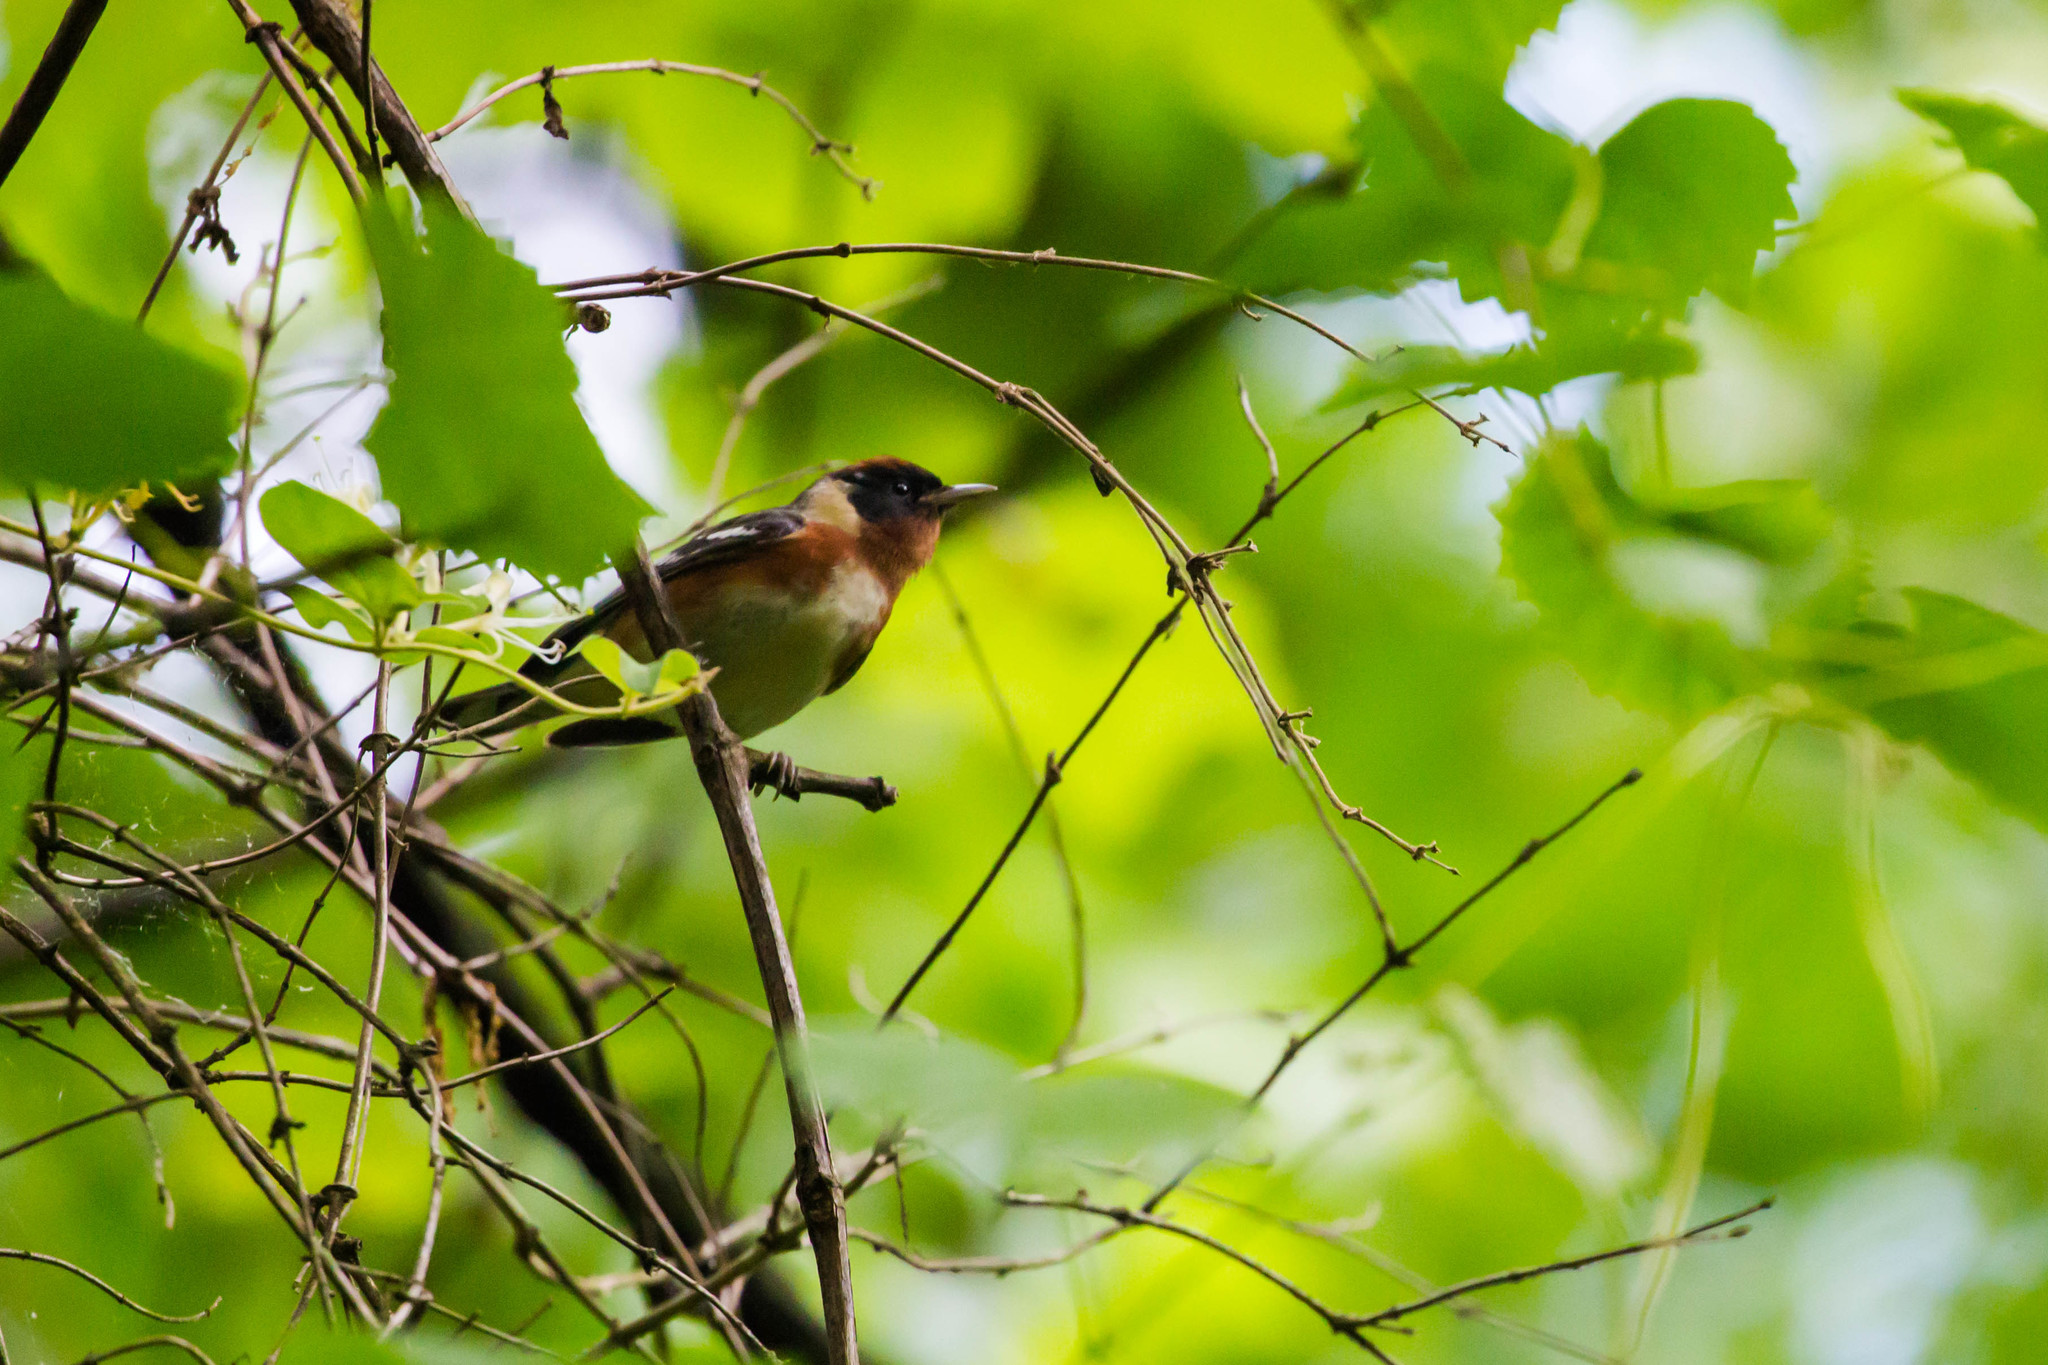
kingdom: Animalia
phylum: Chordata
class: Aves
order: Passeriformes
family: Parulidae
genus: Setophaga
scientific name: Setophaga castanea
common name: Bay-breasted warbler
